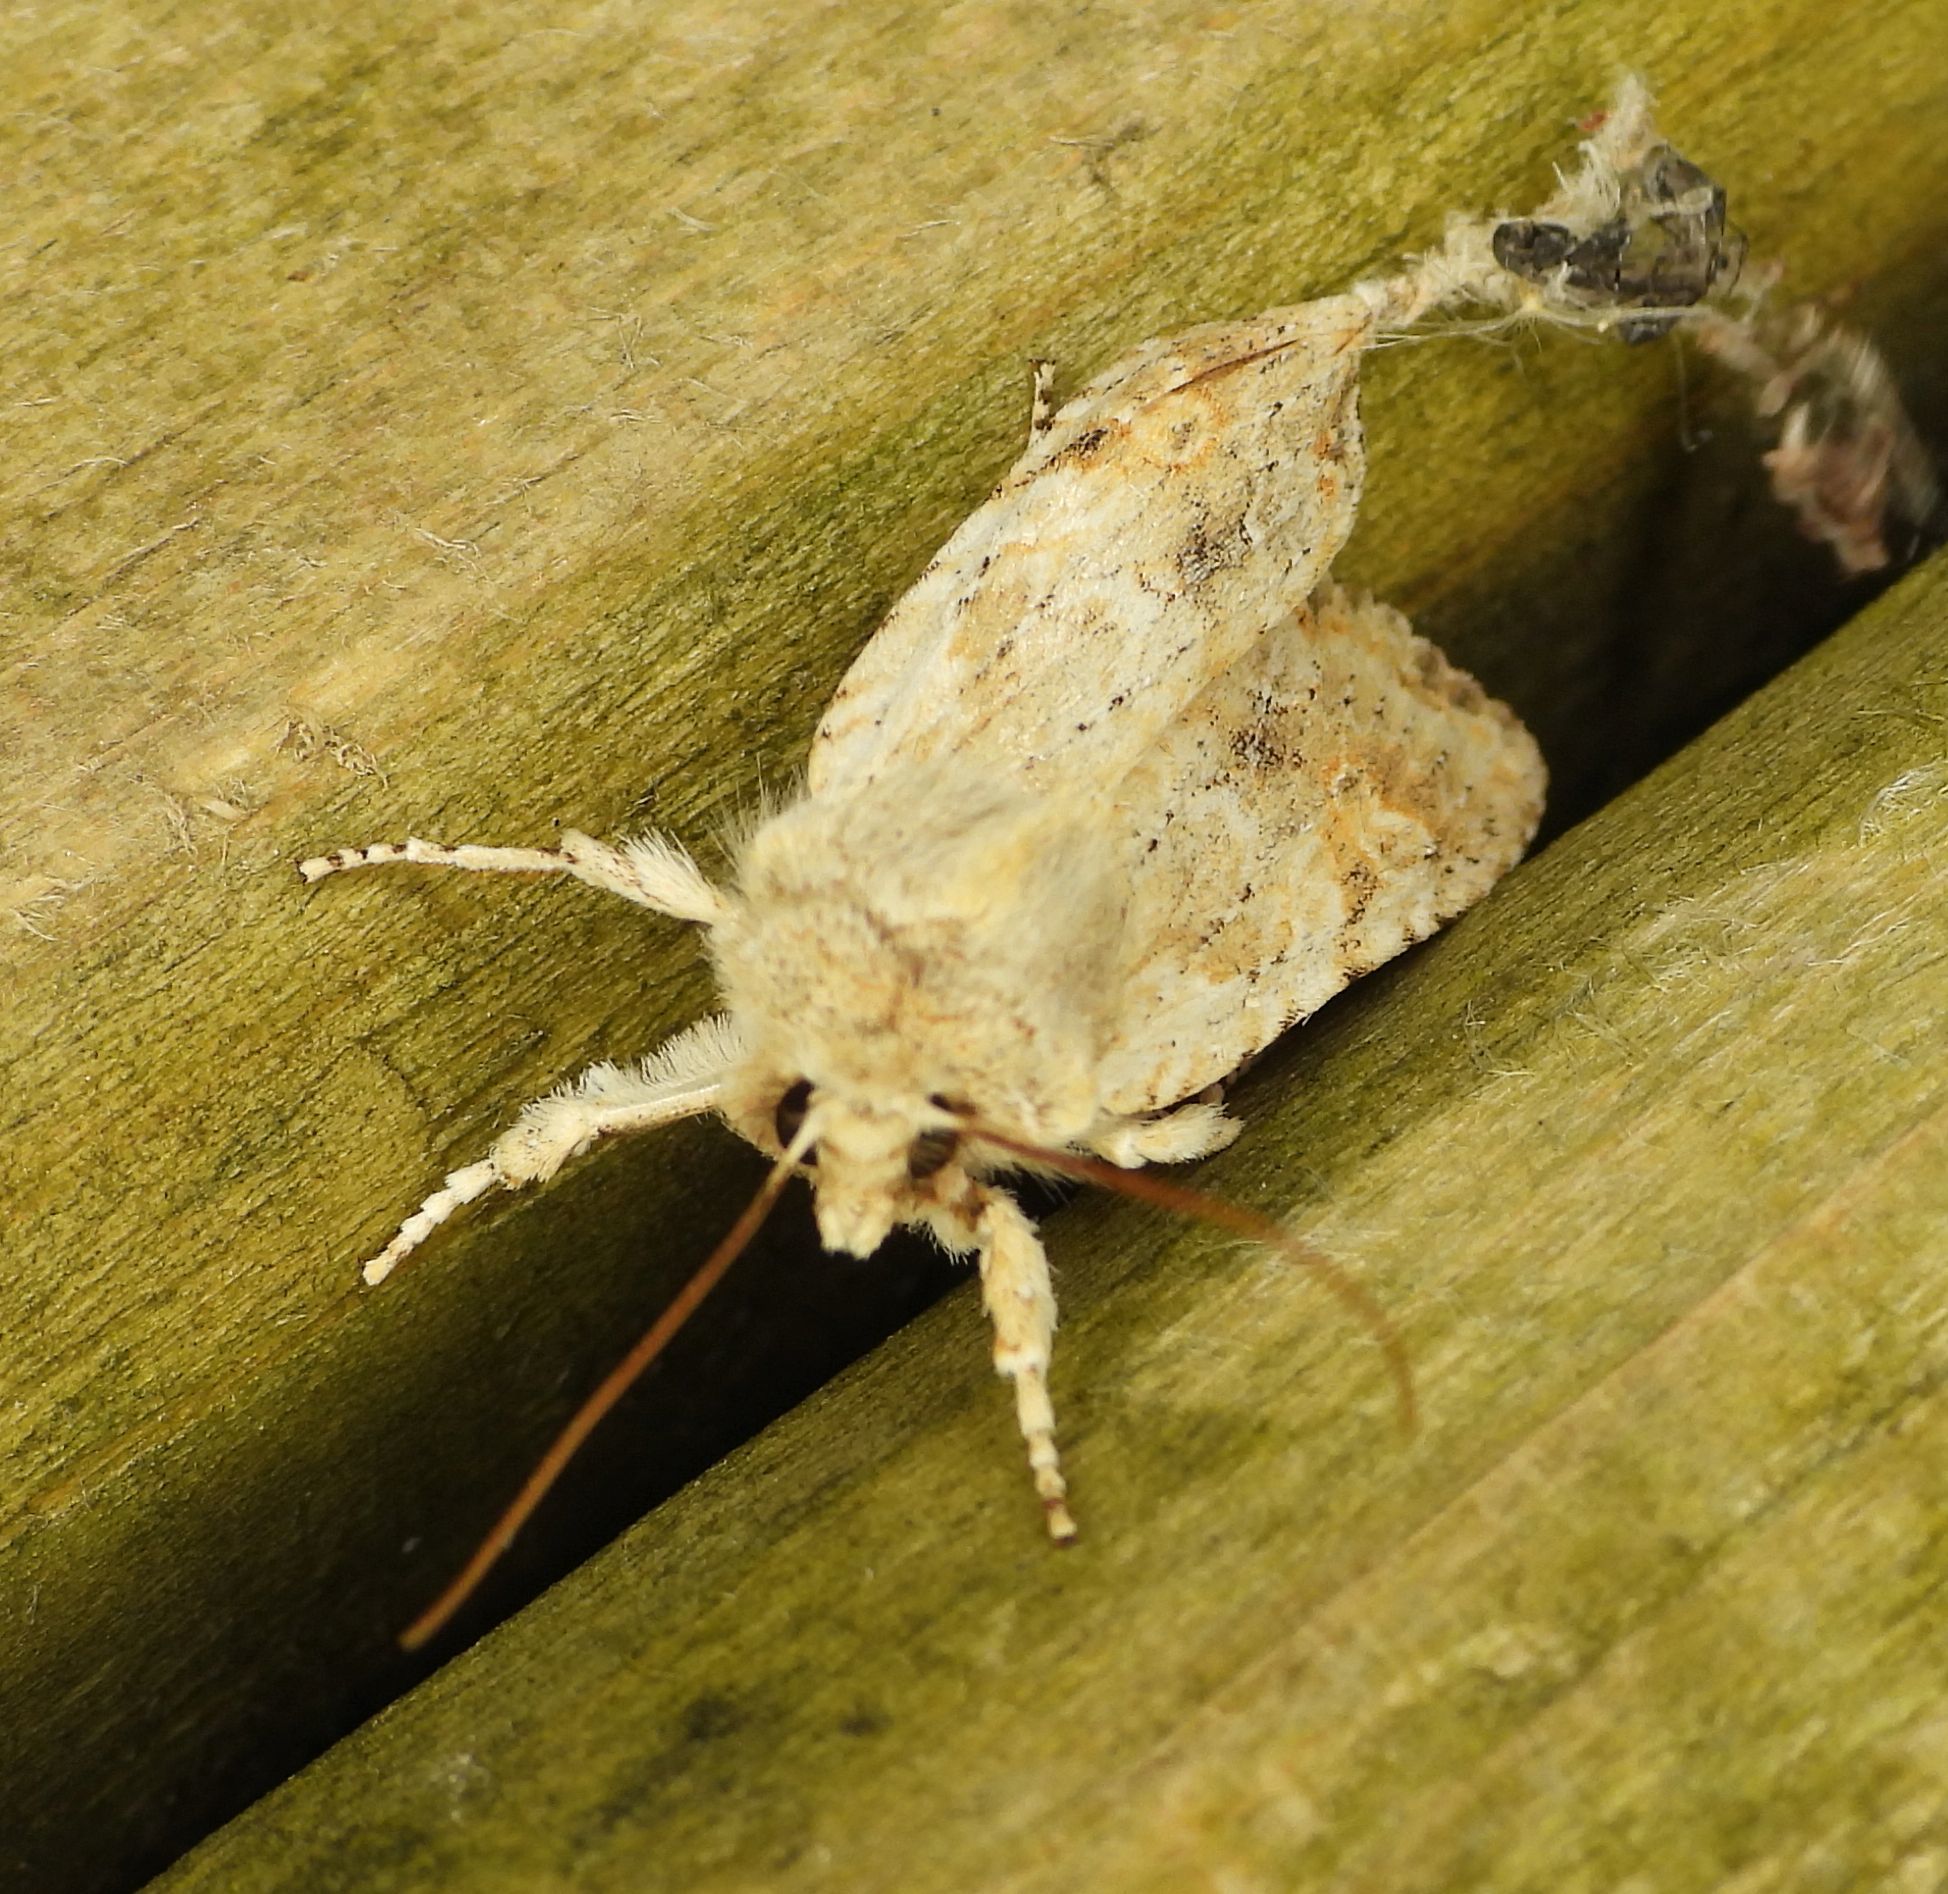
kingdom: Animalia
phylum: Arthropoda
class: Insecta
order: Lepidoptera
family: Noctuidae
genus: Lithophane
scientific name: Lithophane bethunei
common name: Bethune's pinion moth
